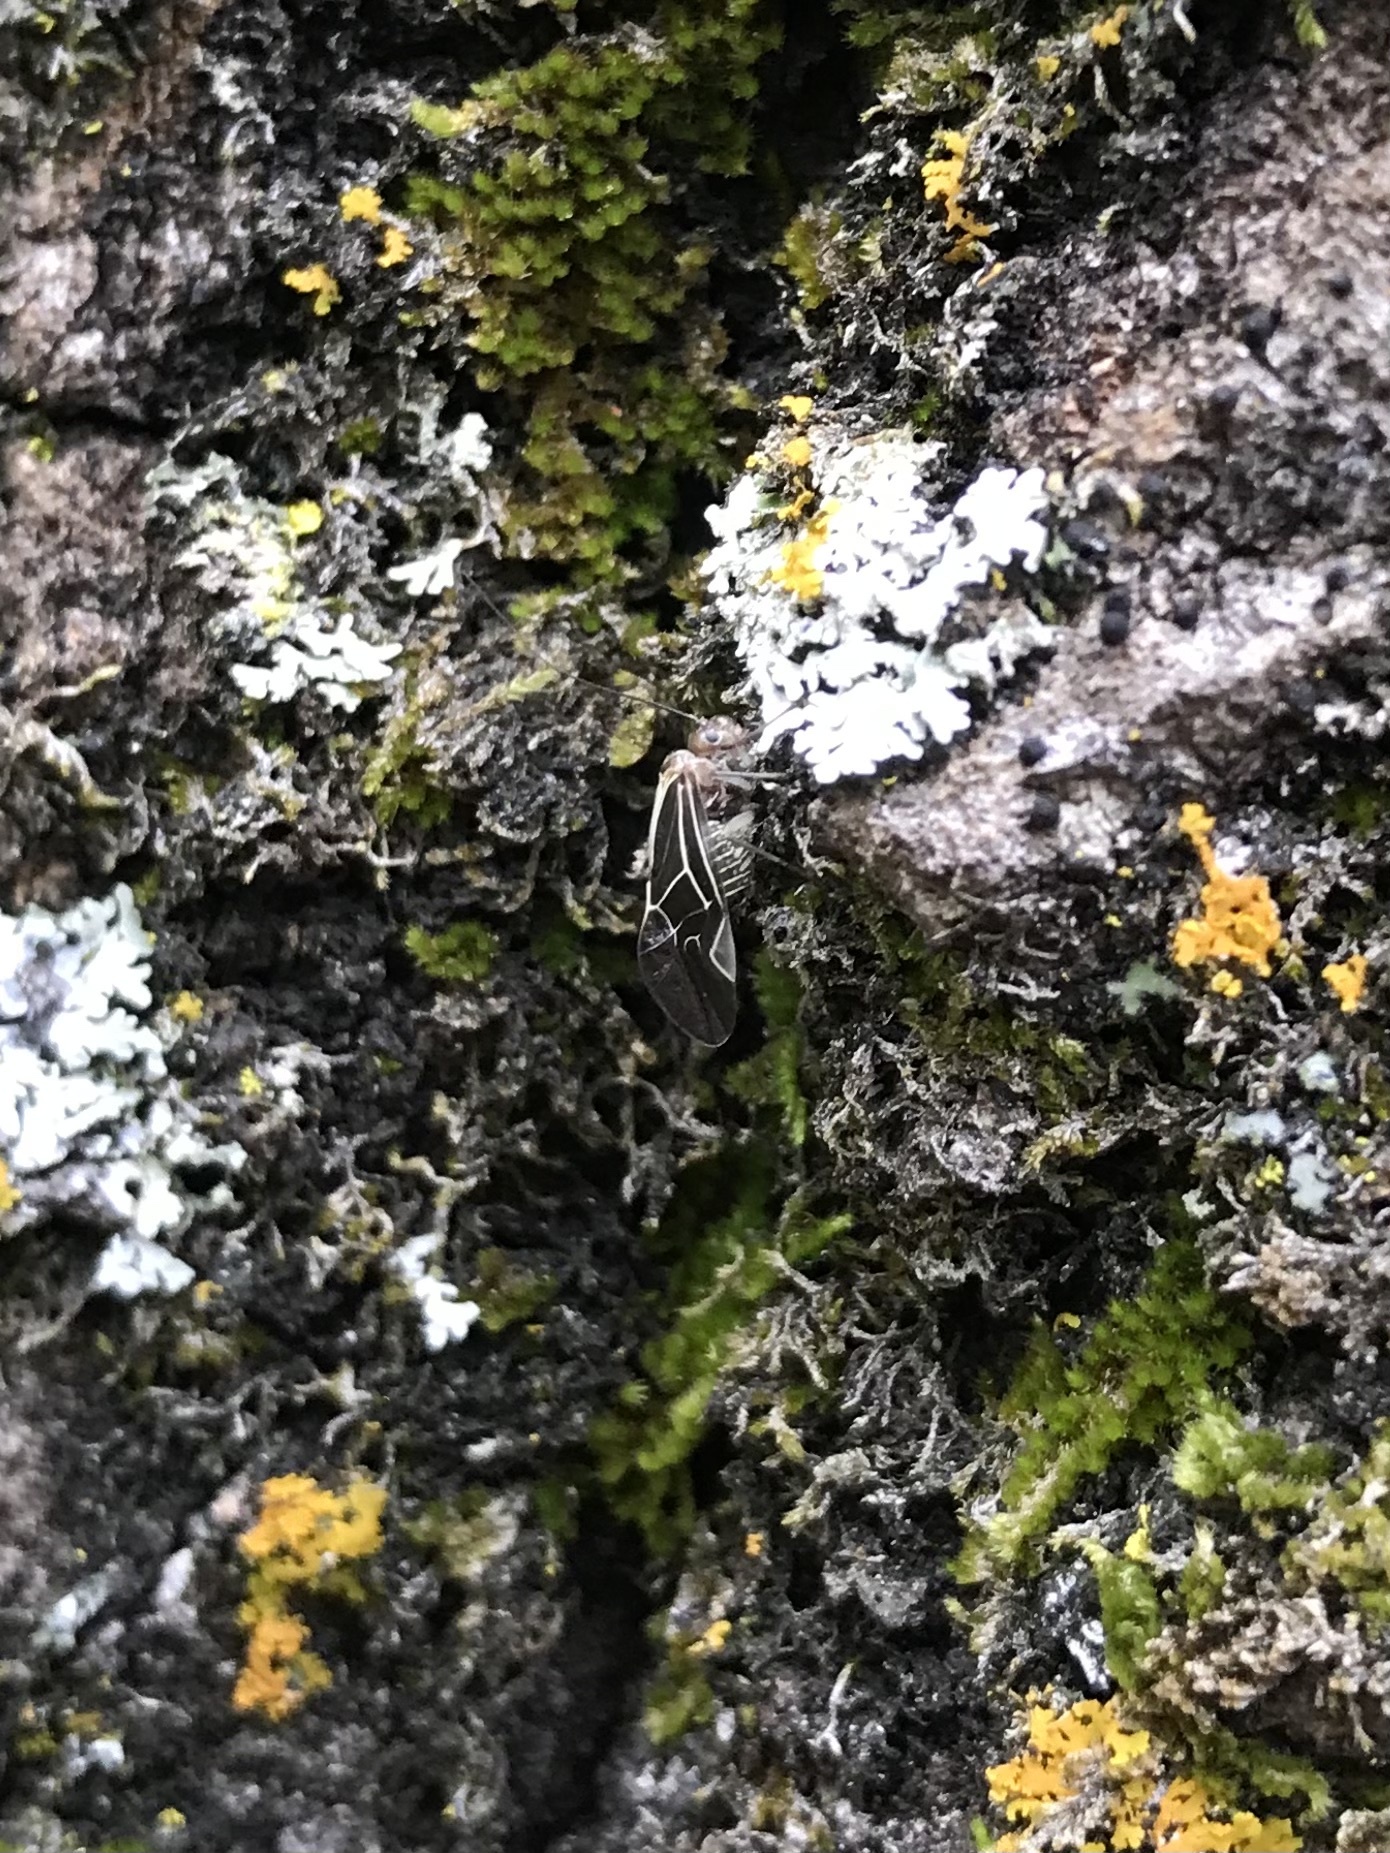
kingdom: Animalia
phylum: Arthropoda
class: Insecta
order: Psocodea
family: Psocidae
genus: Cerastipsocus
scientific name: Cerastipsocus venosus
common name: Tree cattle
